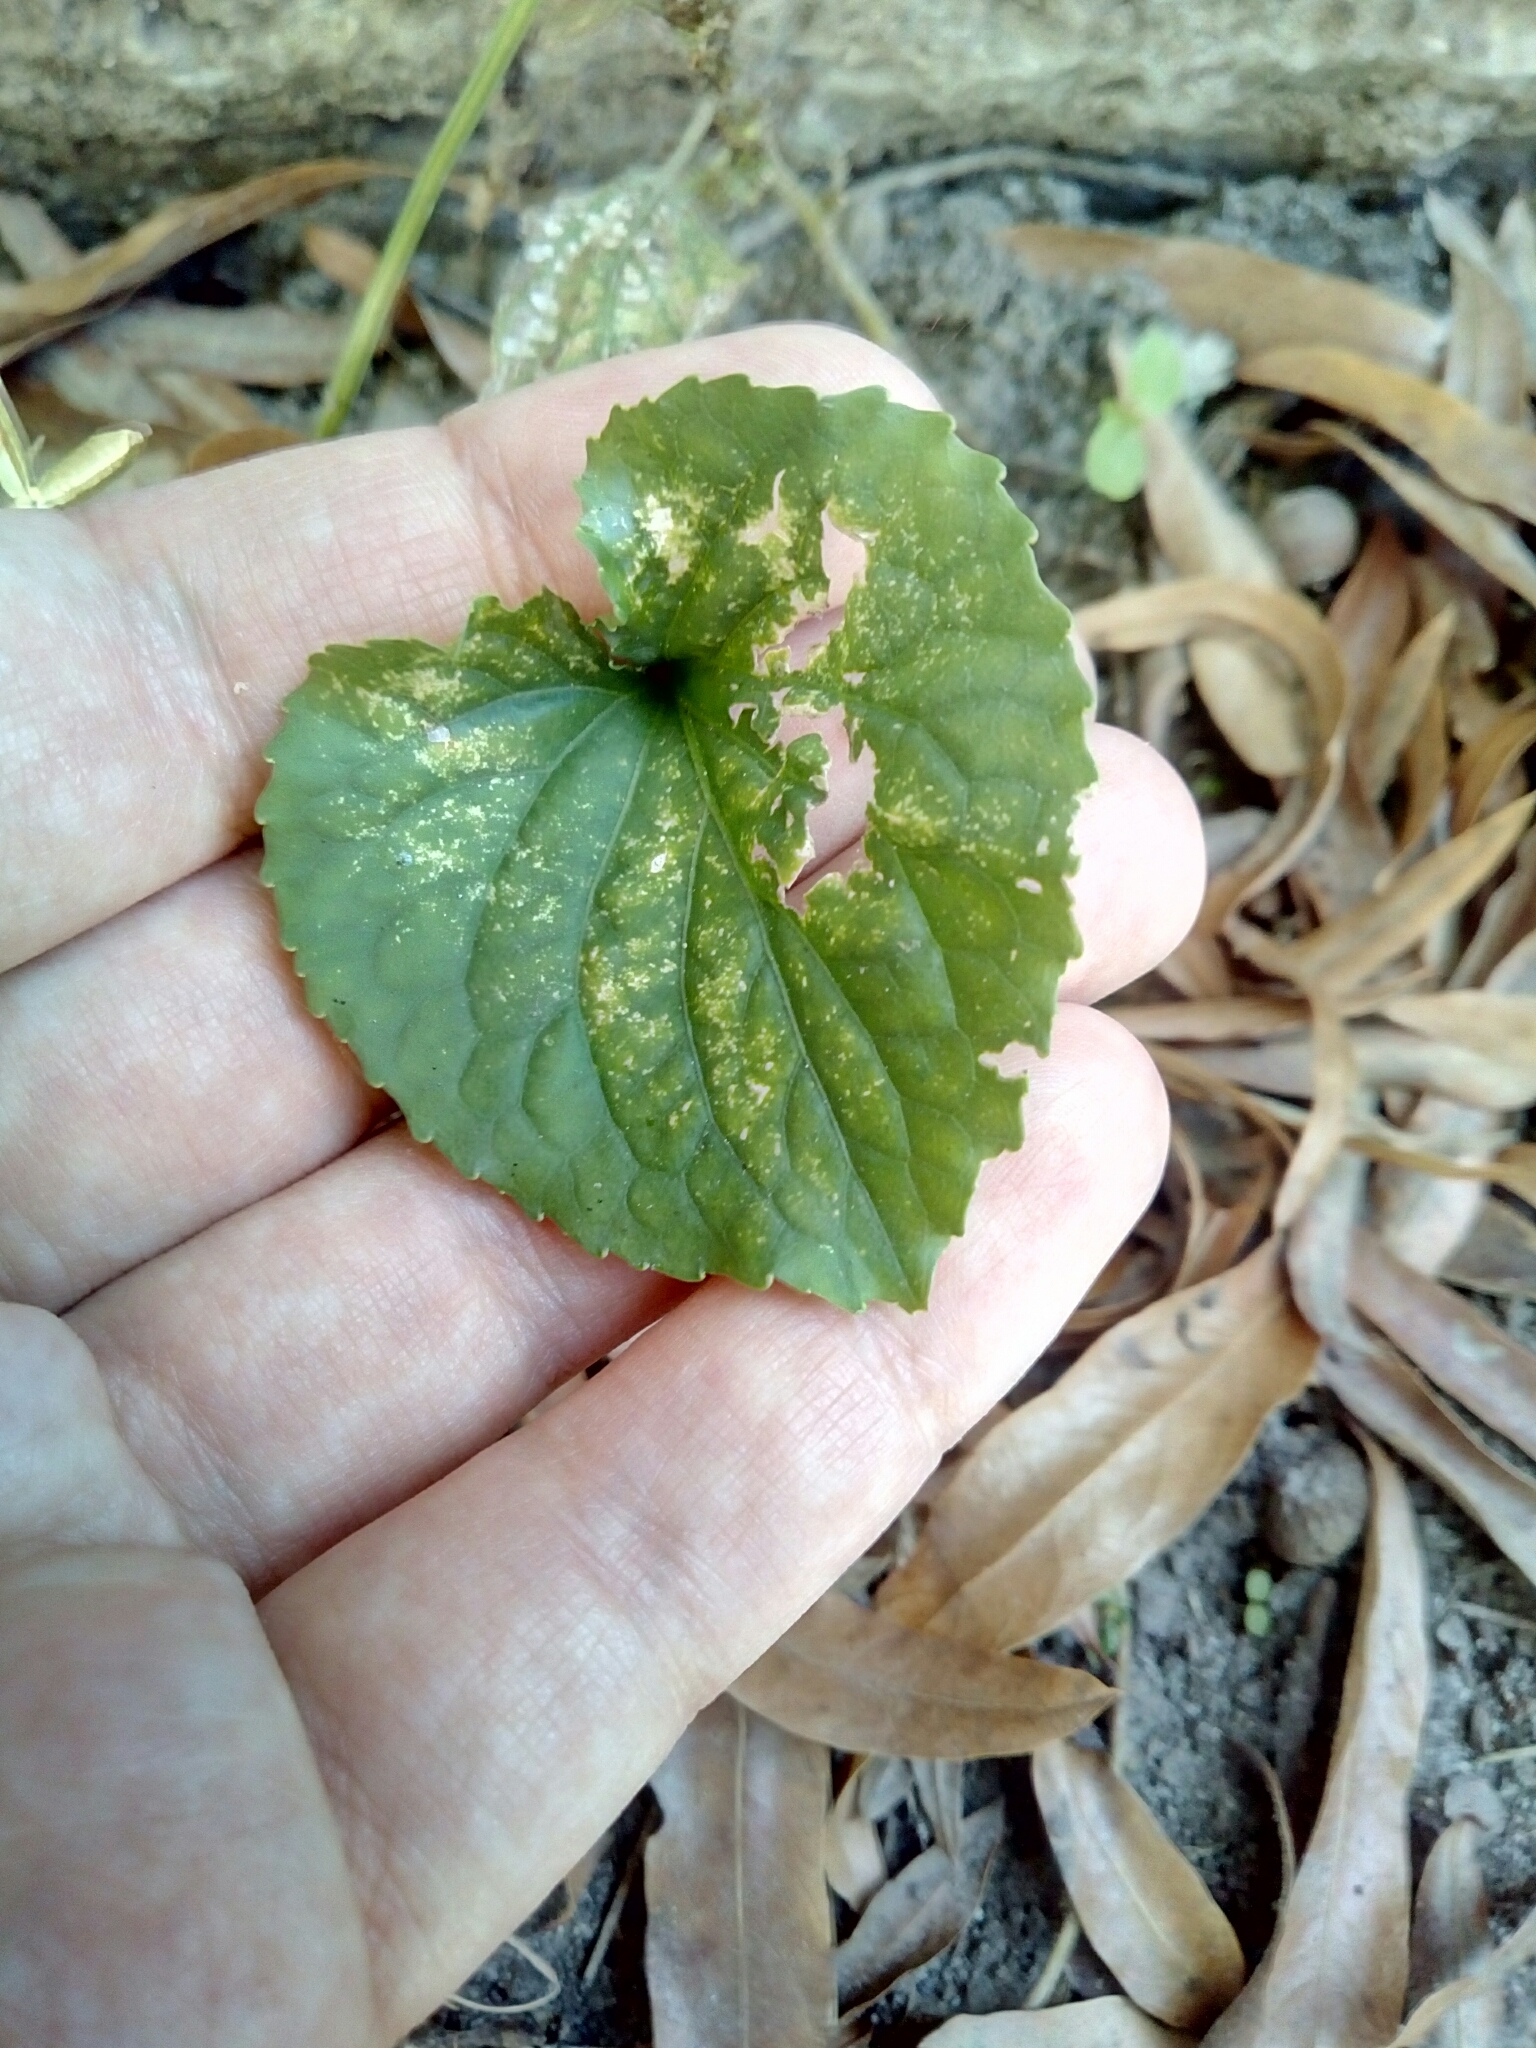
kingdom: Plantae
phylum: Tracheophyta
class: Magnoliopsida
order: Malpighiales
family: Violaceae
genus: Viola
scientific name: Viola sororia
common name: Dooryard violet
